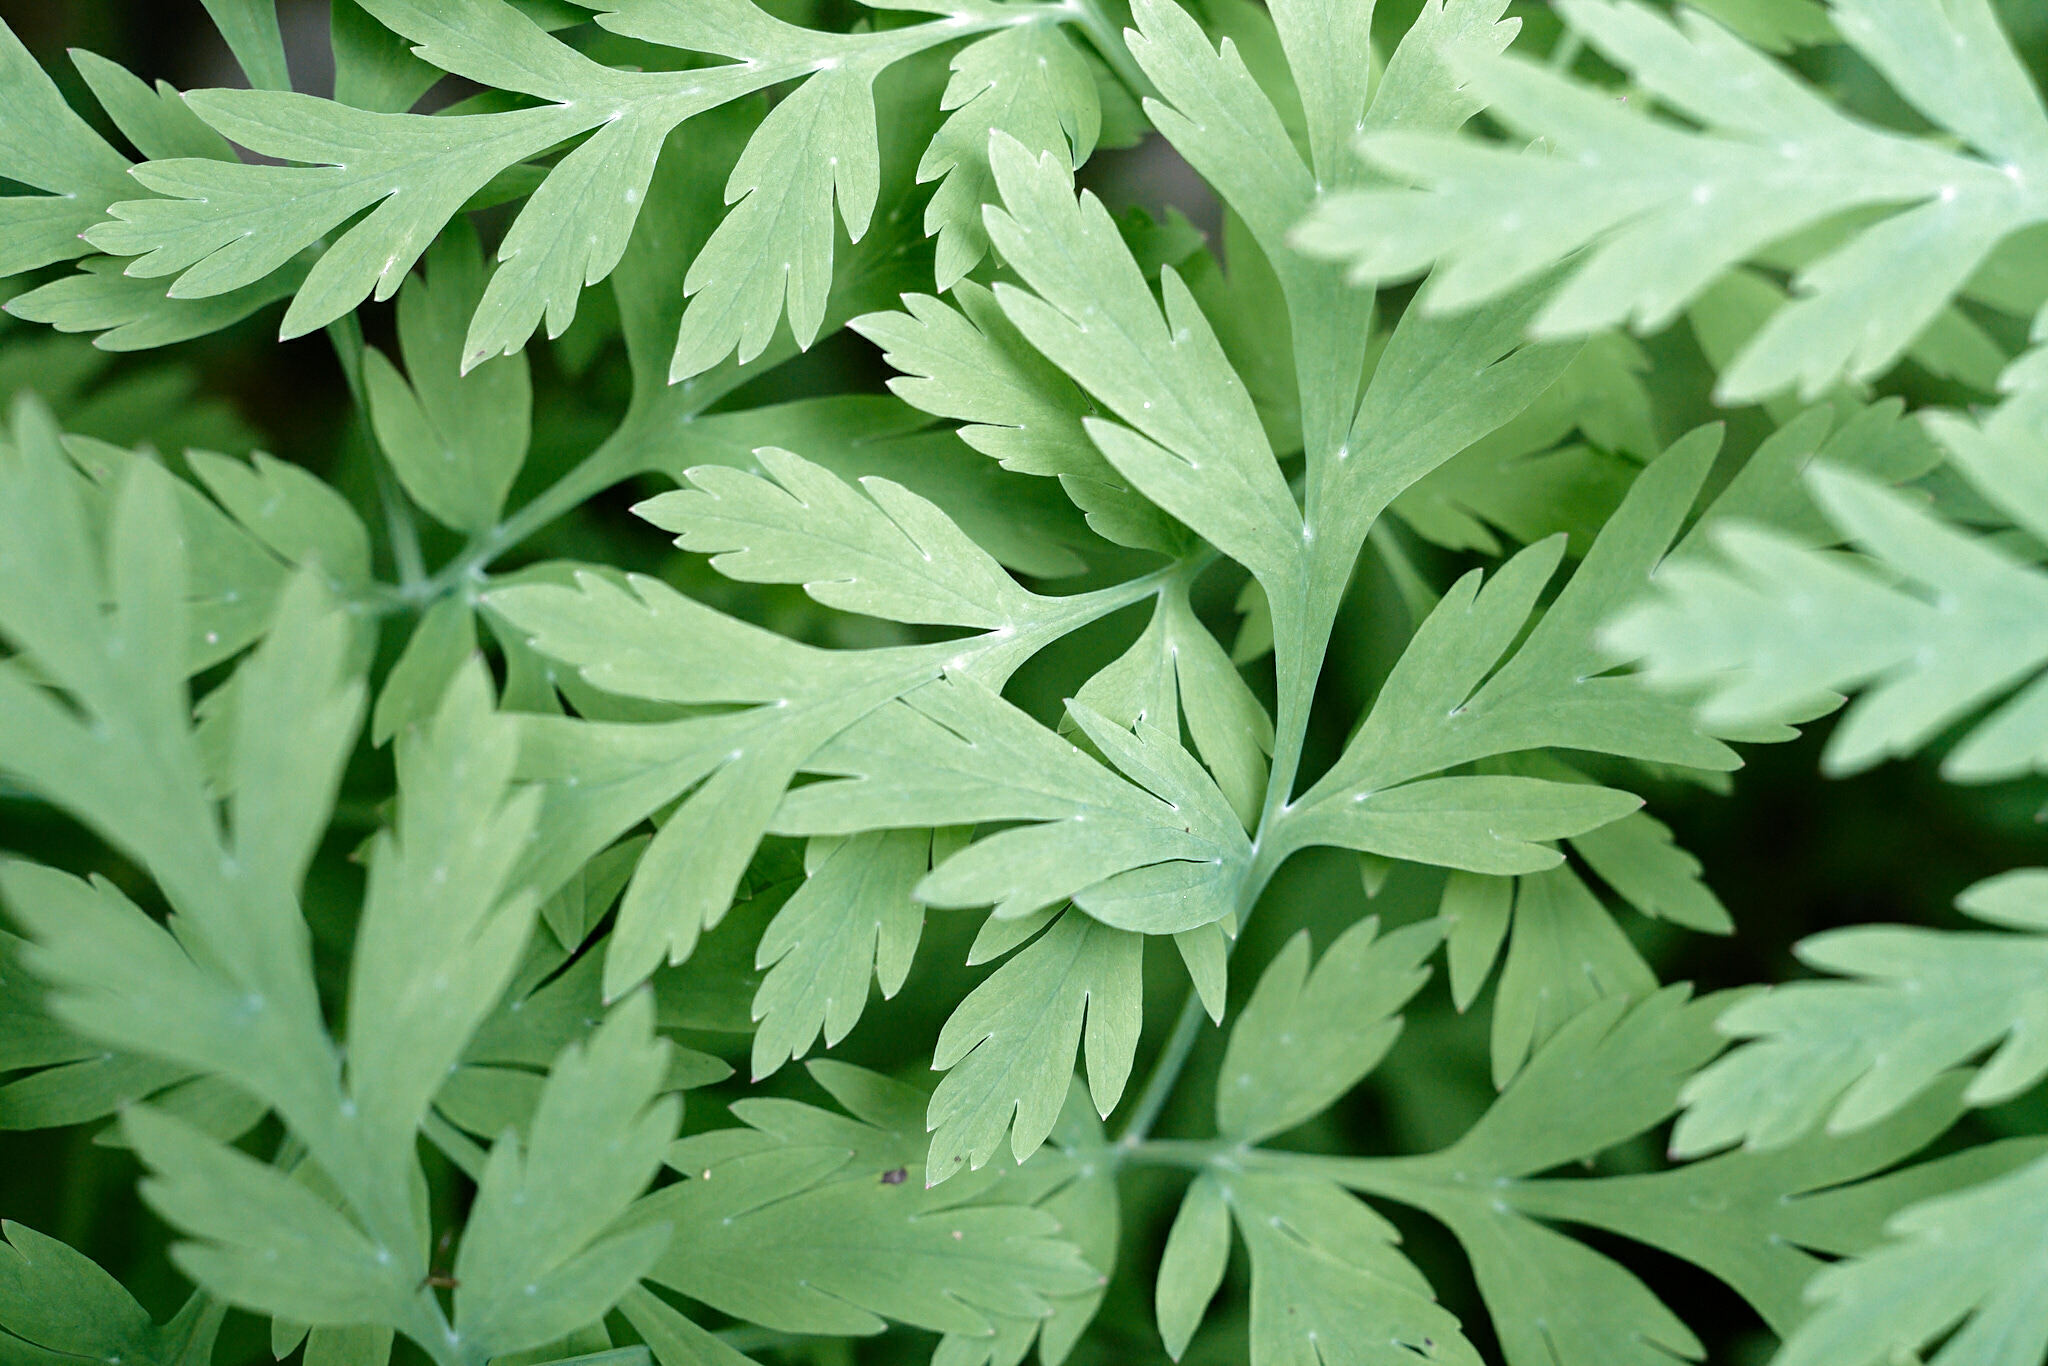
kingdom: Plantae
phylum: Tracheophyta
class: Magnoliopsida
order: Ranunculales
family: Papaveraceae
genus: Dicentra
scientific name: Dicentra formosa
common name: Bleeding-heart
